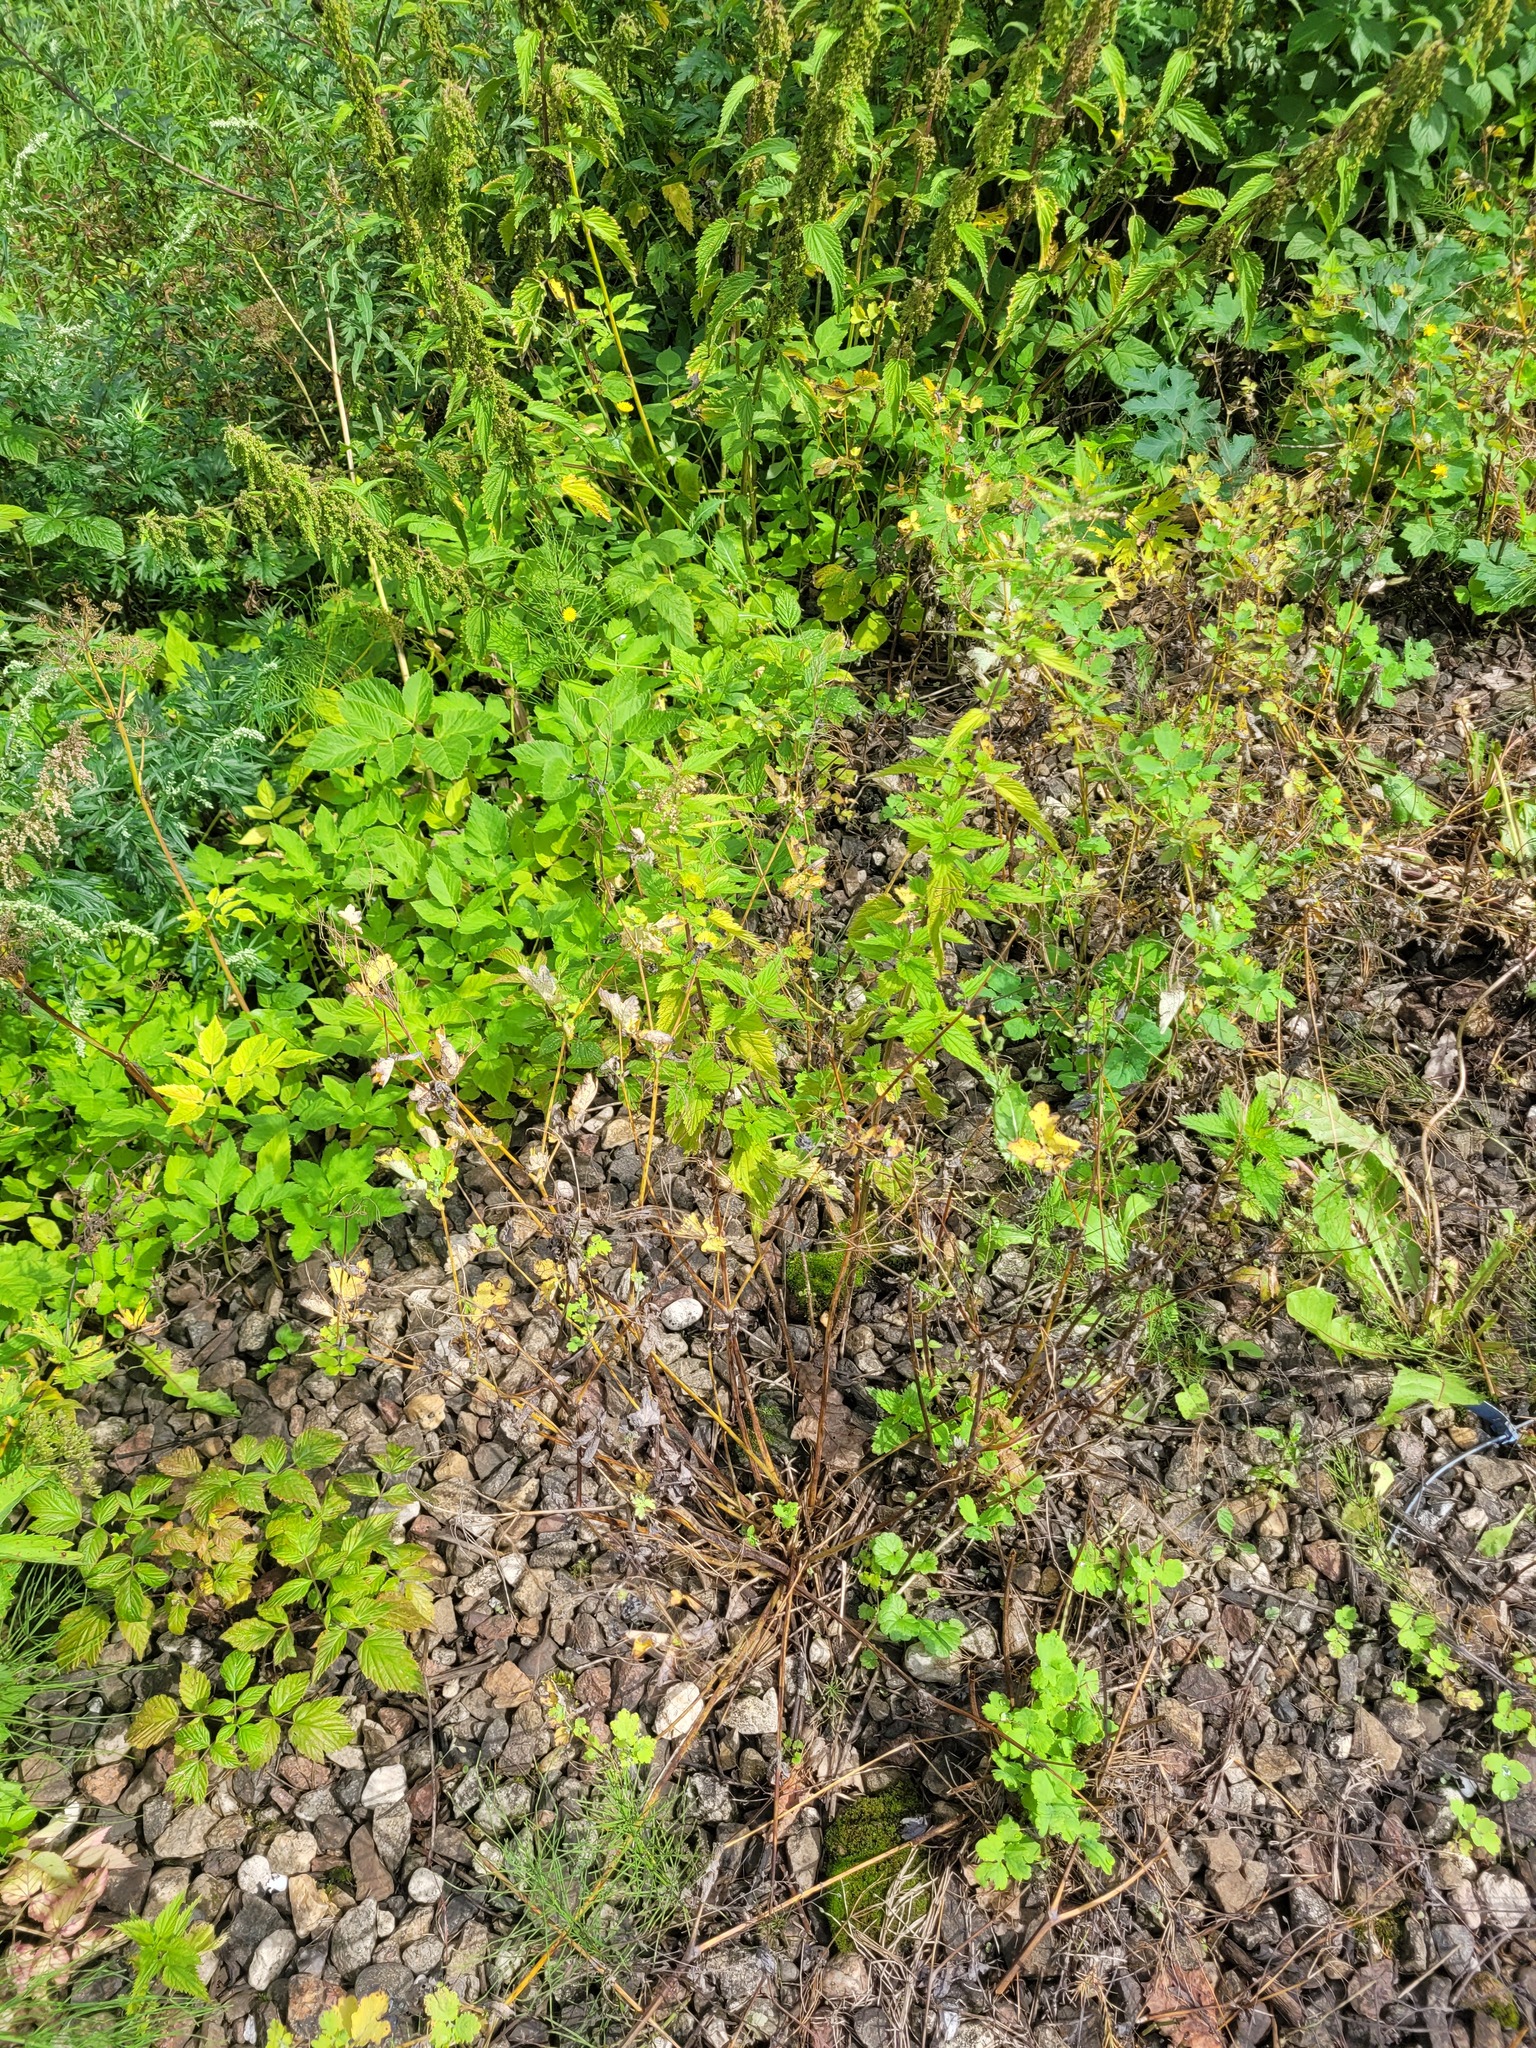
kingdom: Plantae
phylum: Tracheophyta
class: Magnoliopsida
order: Ranunculales
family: Papaveraceae
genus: Chelidonium
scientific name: Chelidonium majus
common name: Greater celandine
